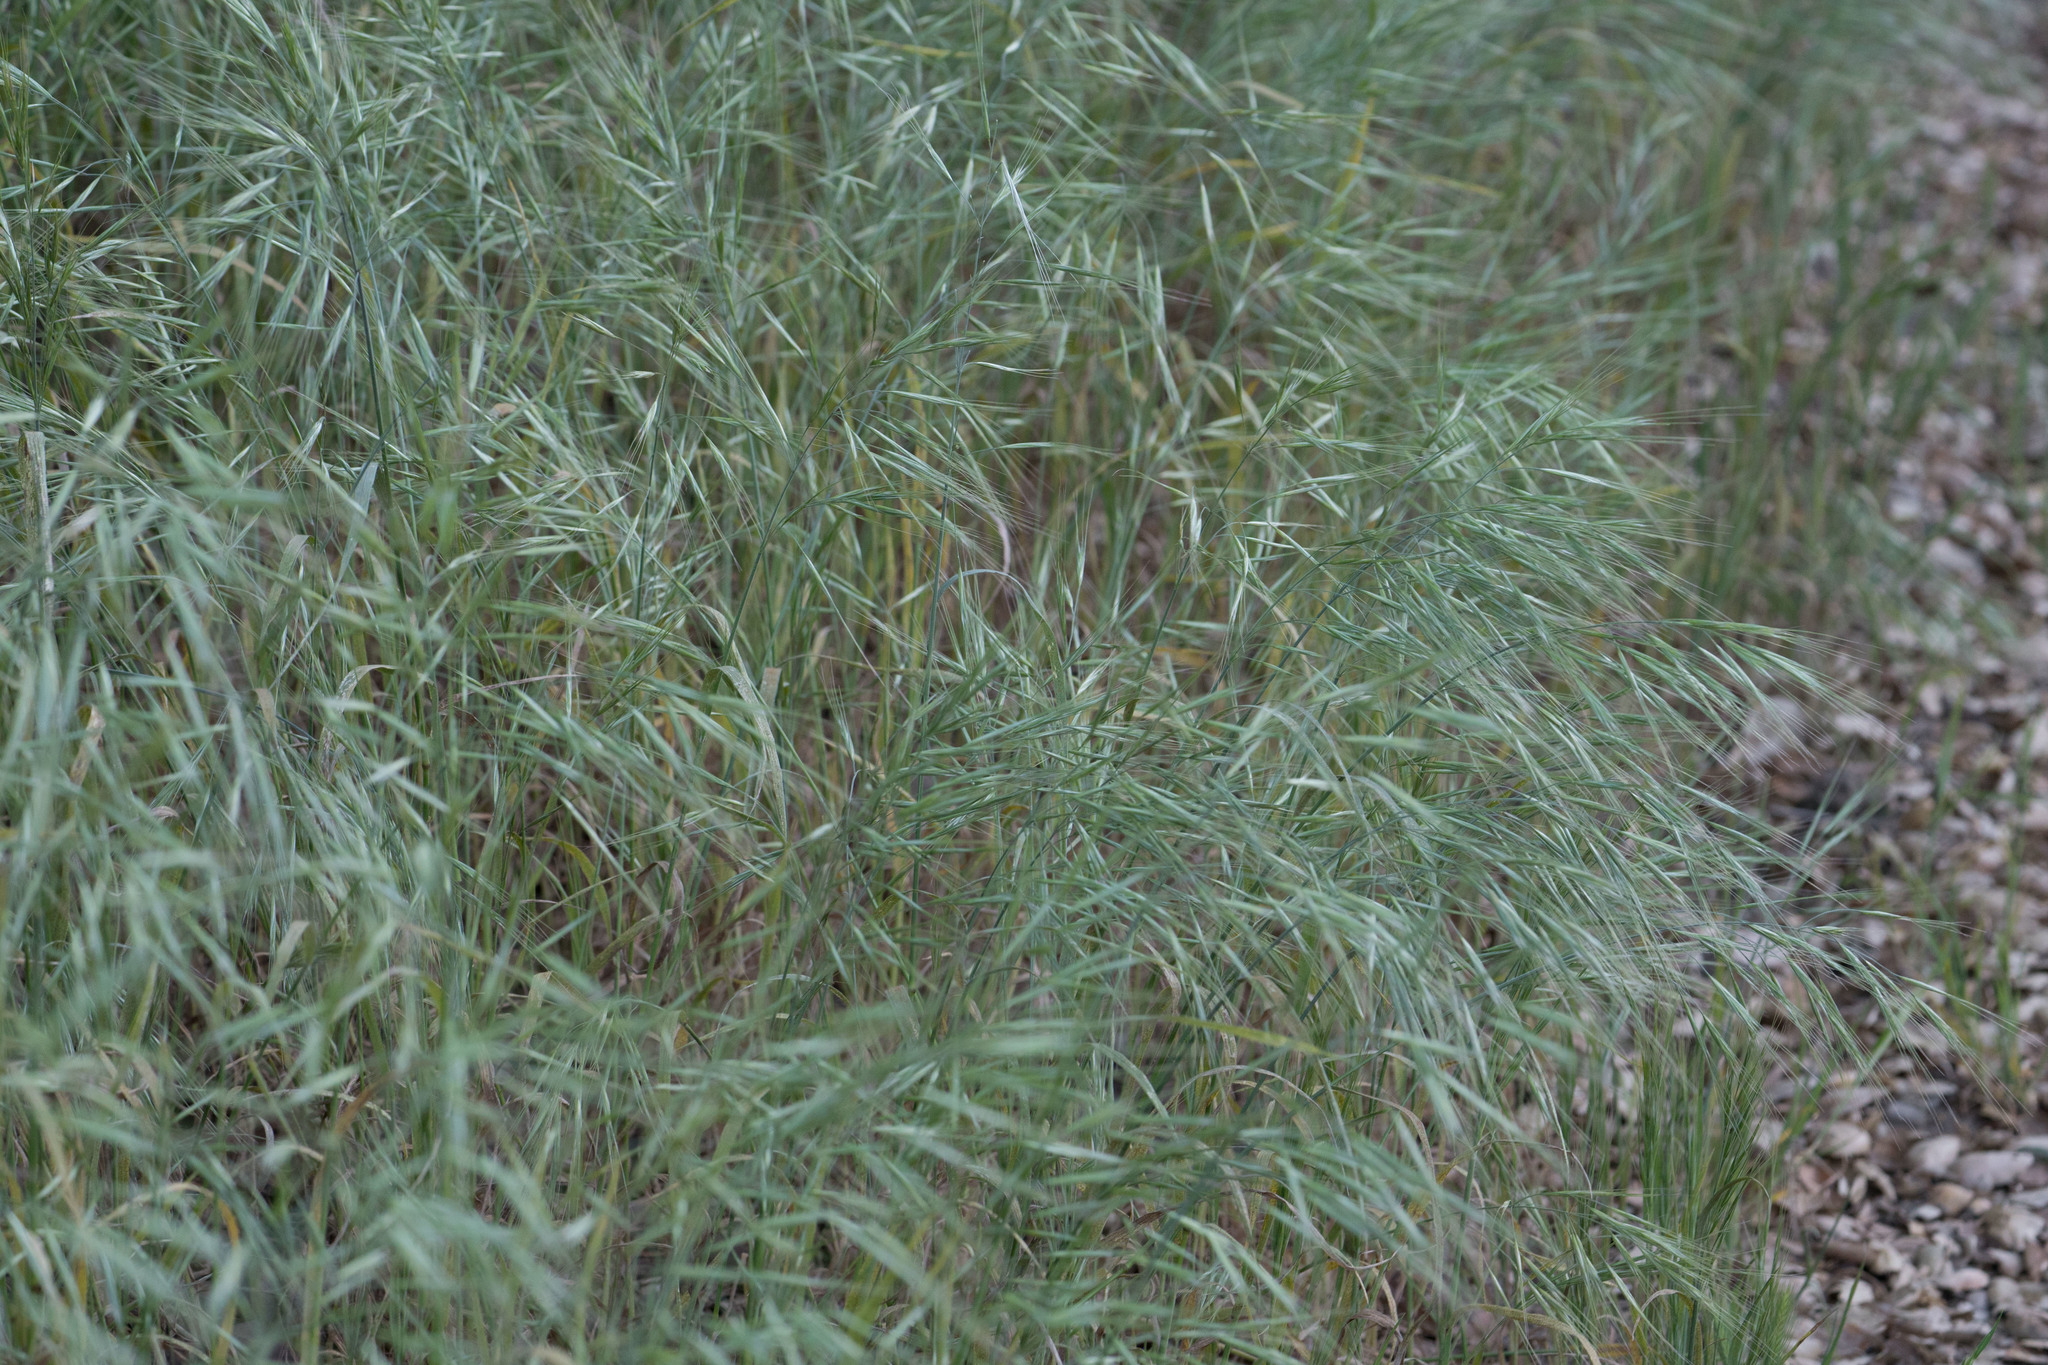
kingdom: Plantae
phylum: Tracheophyta
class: Liliopsida
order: Poales
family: Poaceae
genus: Bromus
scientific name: Bromus diandrus
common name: Ripgut brome
